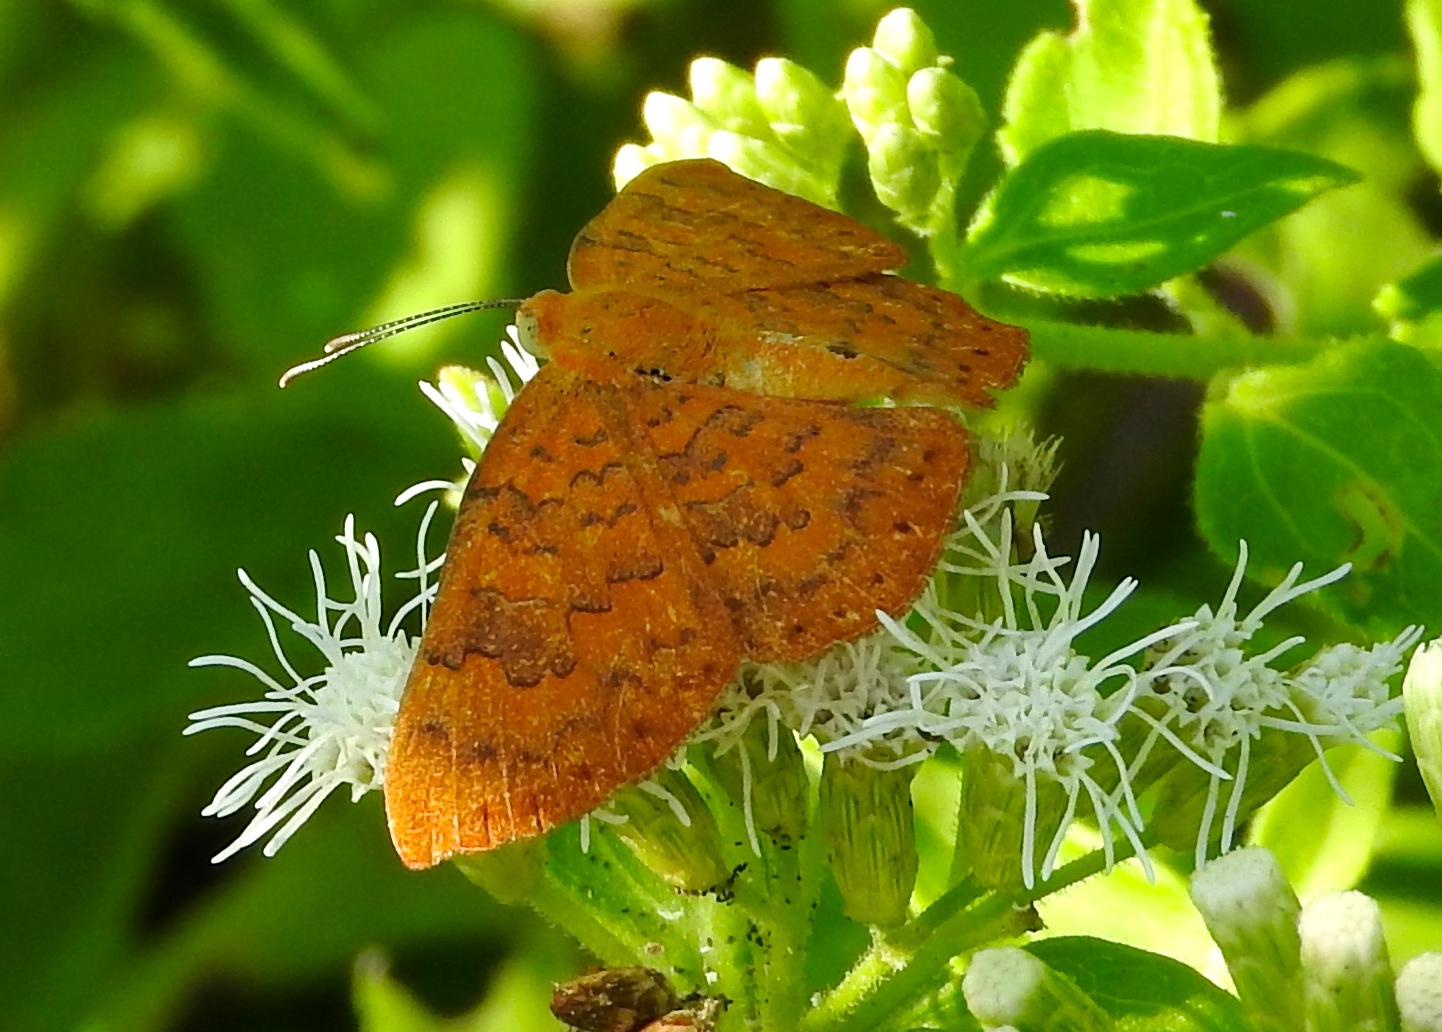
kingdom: Animalia
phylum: Arthropoda
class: Insecta
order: Lepidoptera
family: Lycaenidae
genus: Emesis
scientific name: Emesis
